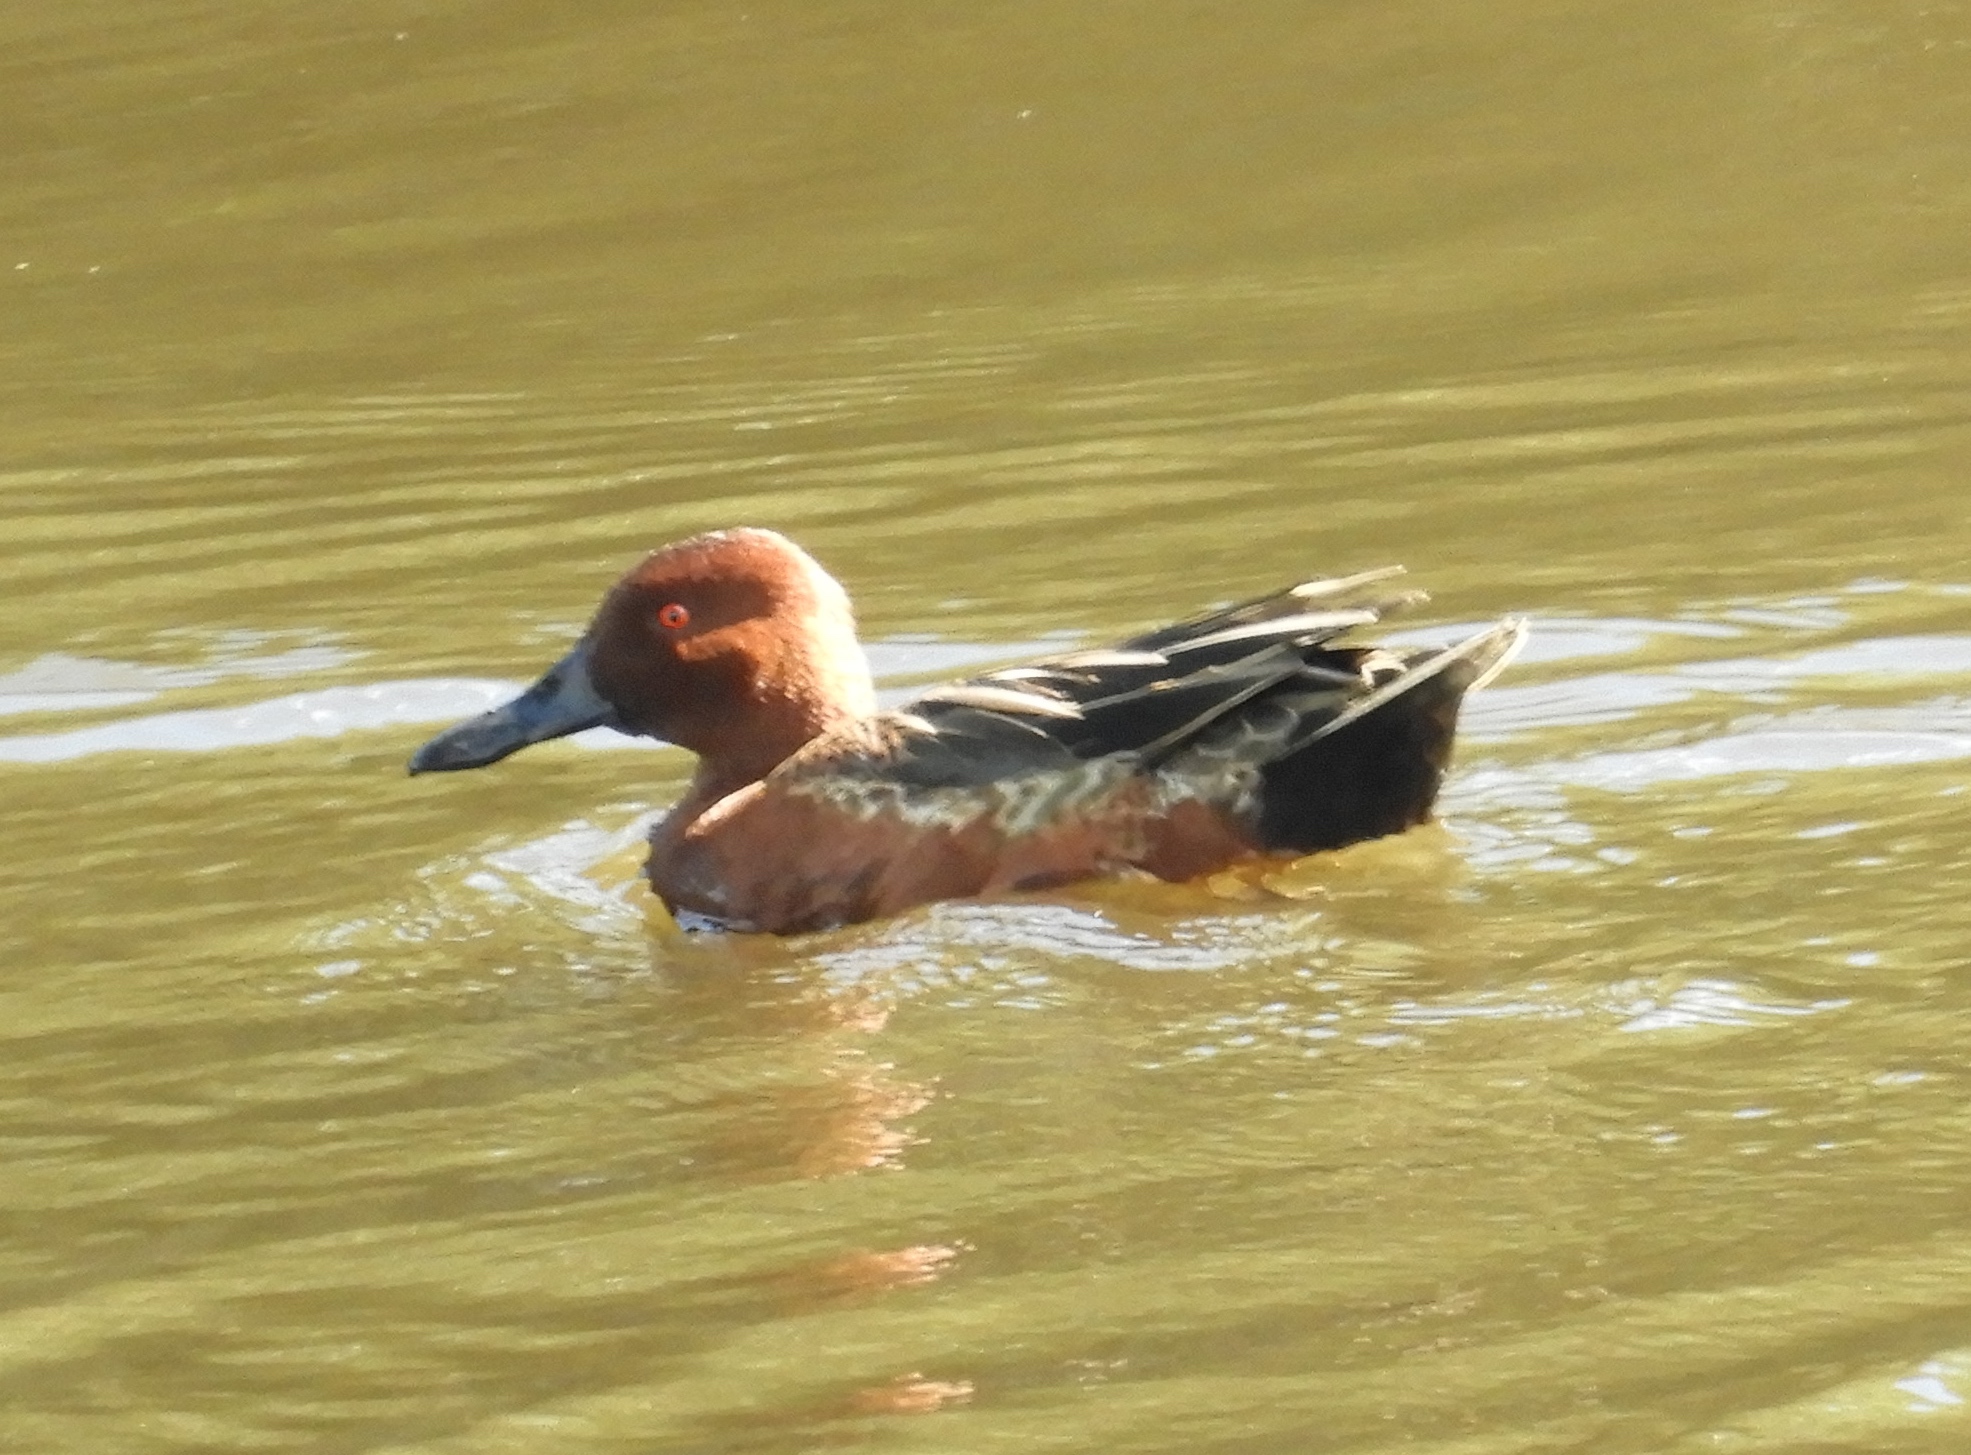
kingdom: Animalia
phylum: Chordata
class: Aves
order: Anseriformes
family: Anatidae
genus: Spatula
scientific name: Spatula cyanoptera
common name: Cinnamon teal
